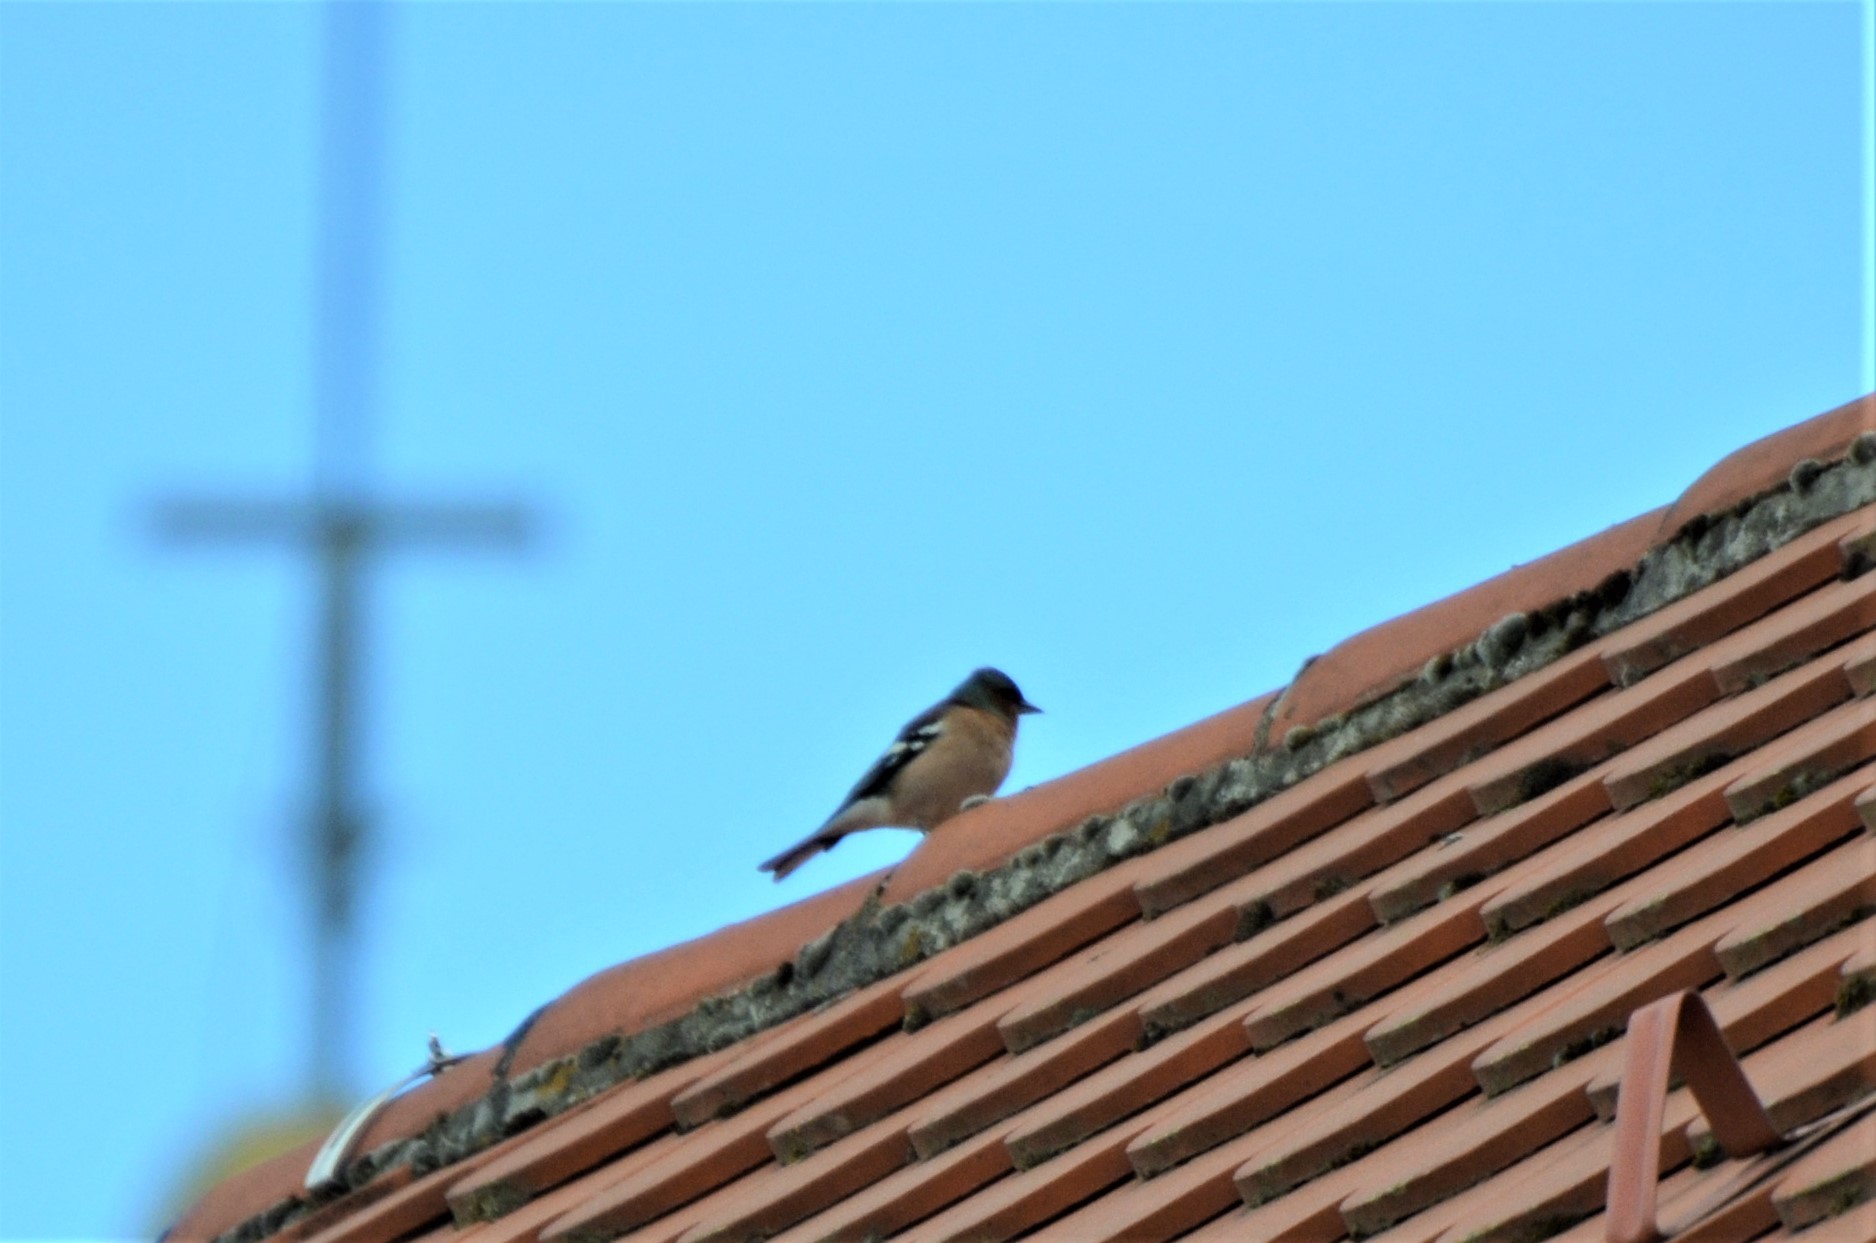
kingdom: Animalia
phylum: Chordata
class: Aves
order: Passeriformes
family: Fringillidae
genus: Fringilla
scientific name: Fringilla coelebs
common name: Common chaffinch
